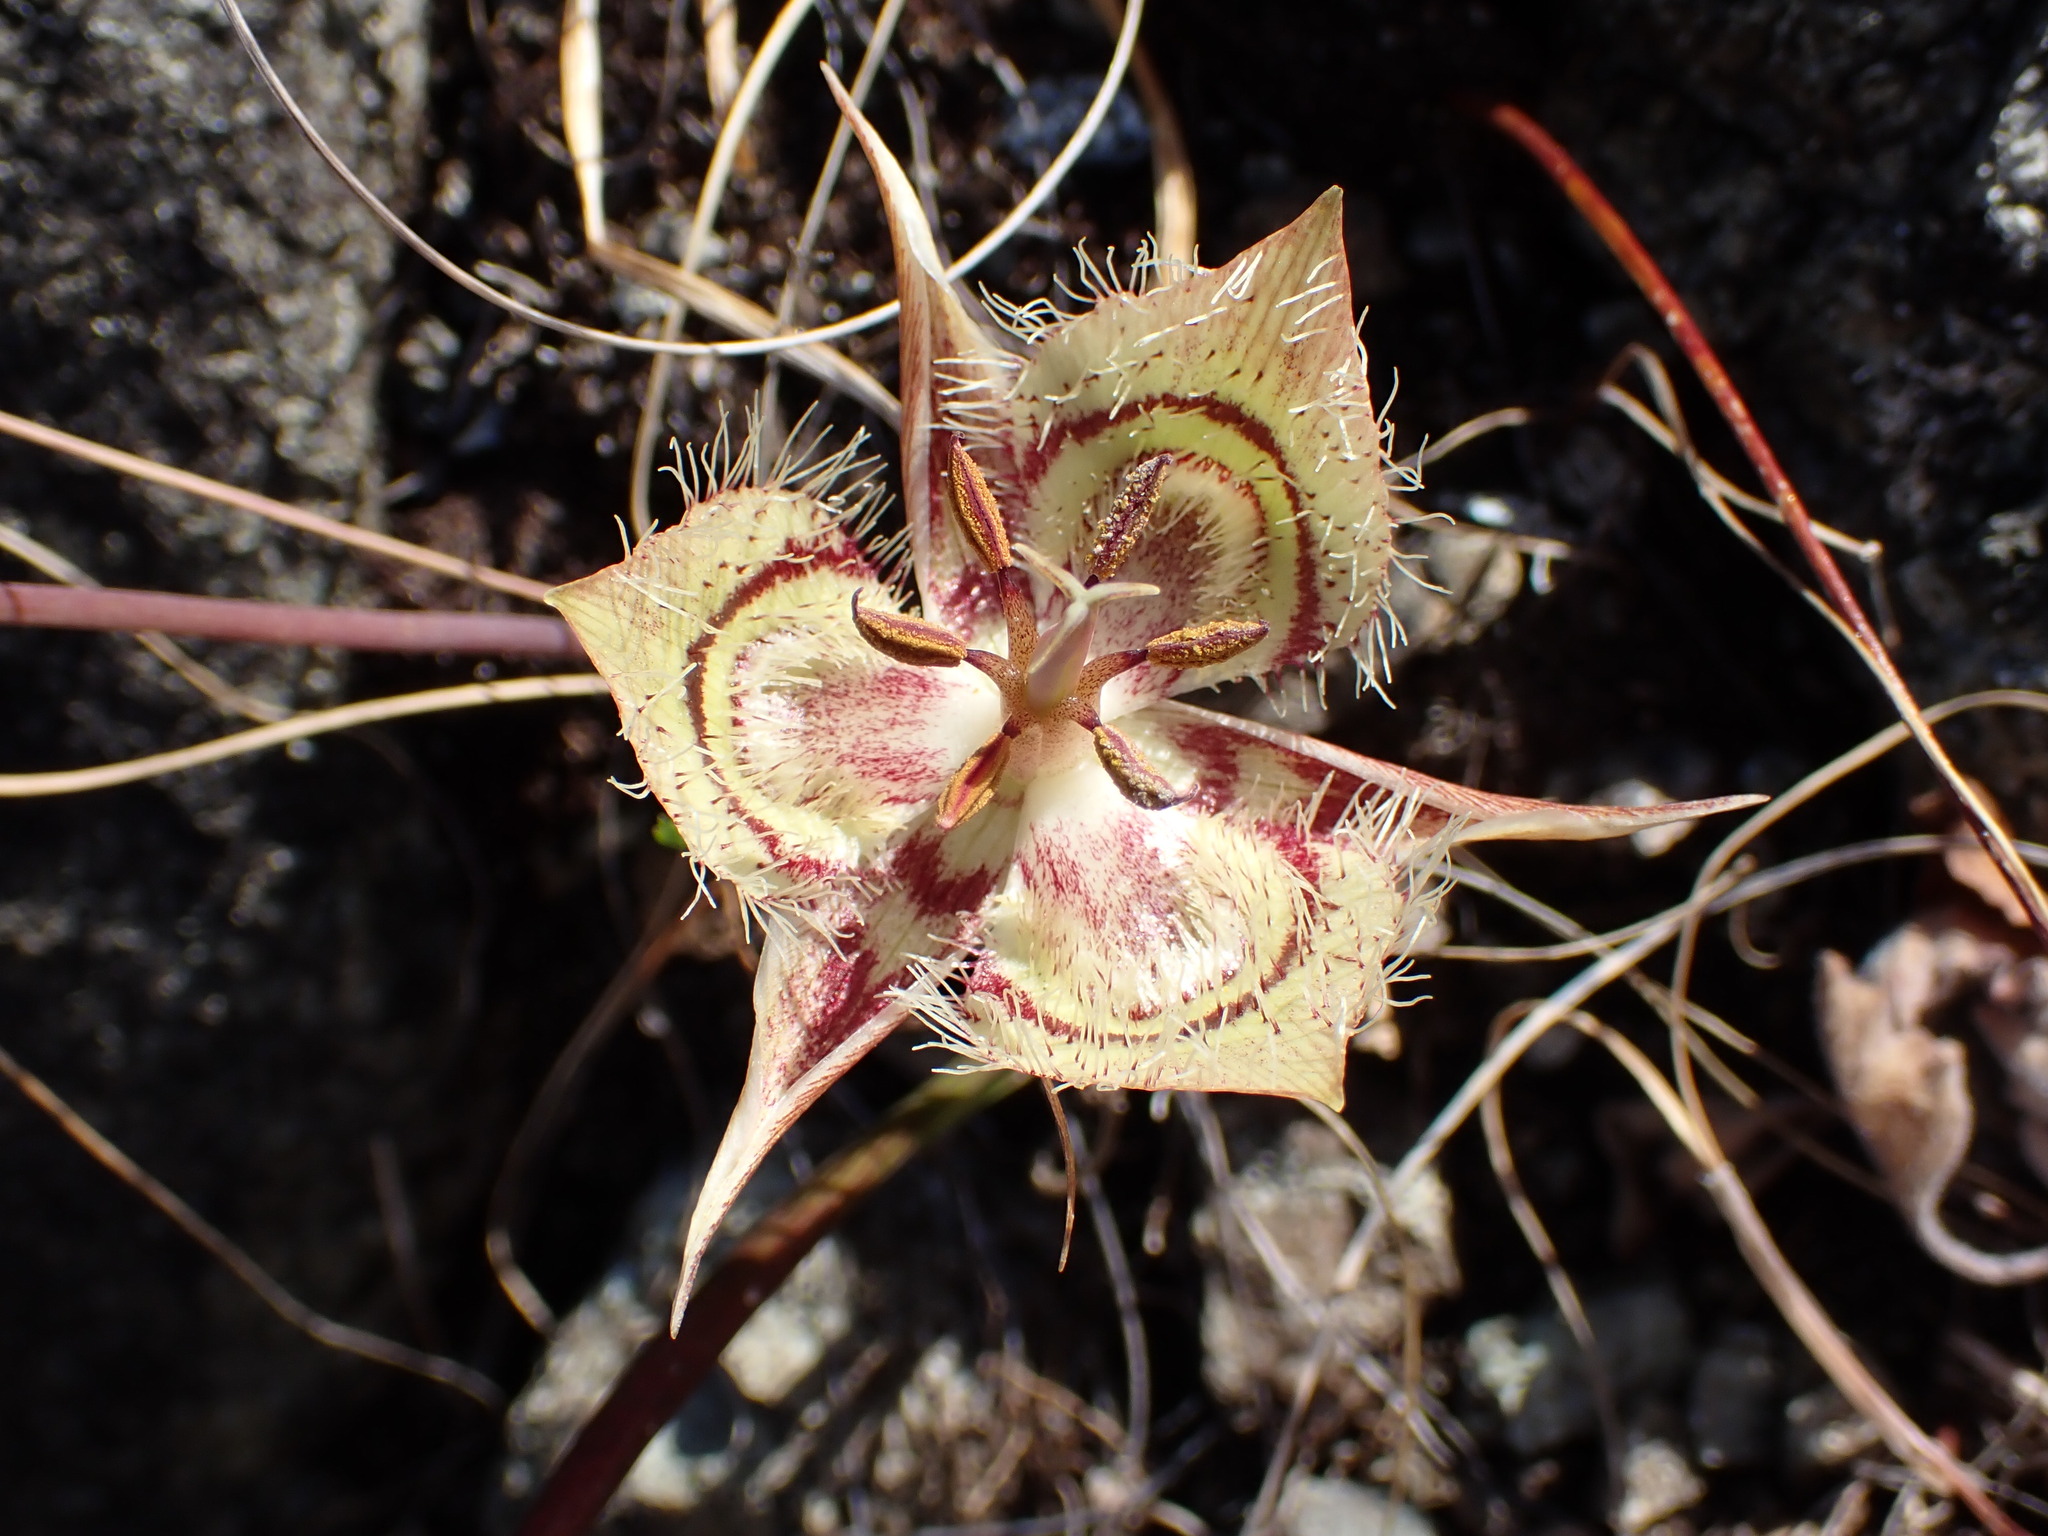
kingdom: Plantae
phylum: Tracheophyta
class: Liliopsida
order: Liliales
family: Liliaceae
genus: Calochortus
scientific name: Calochortus tiburonensis
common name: Tiburon mariposa-lily
